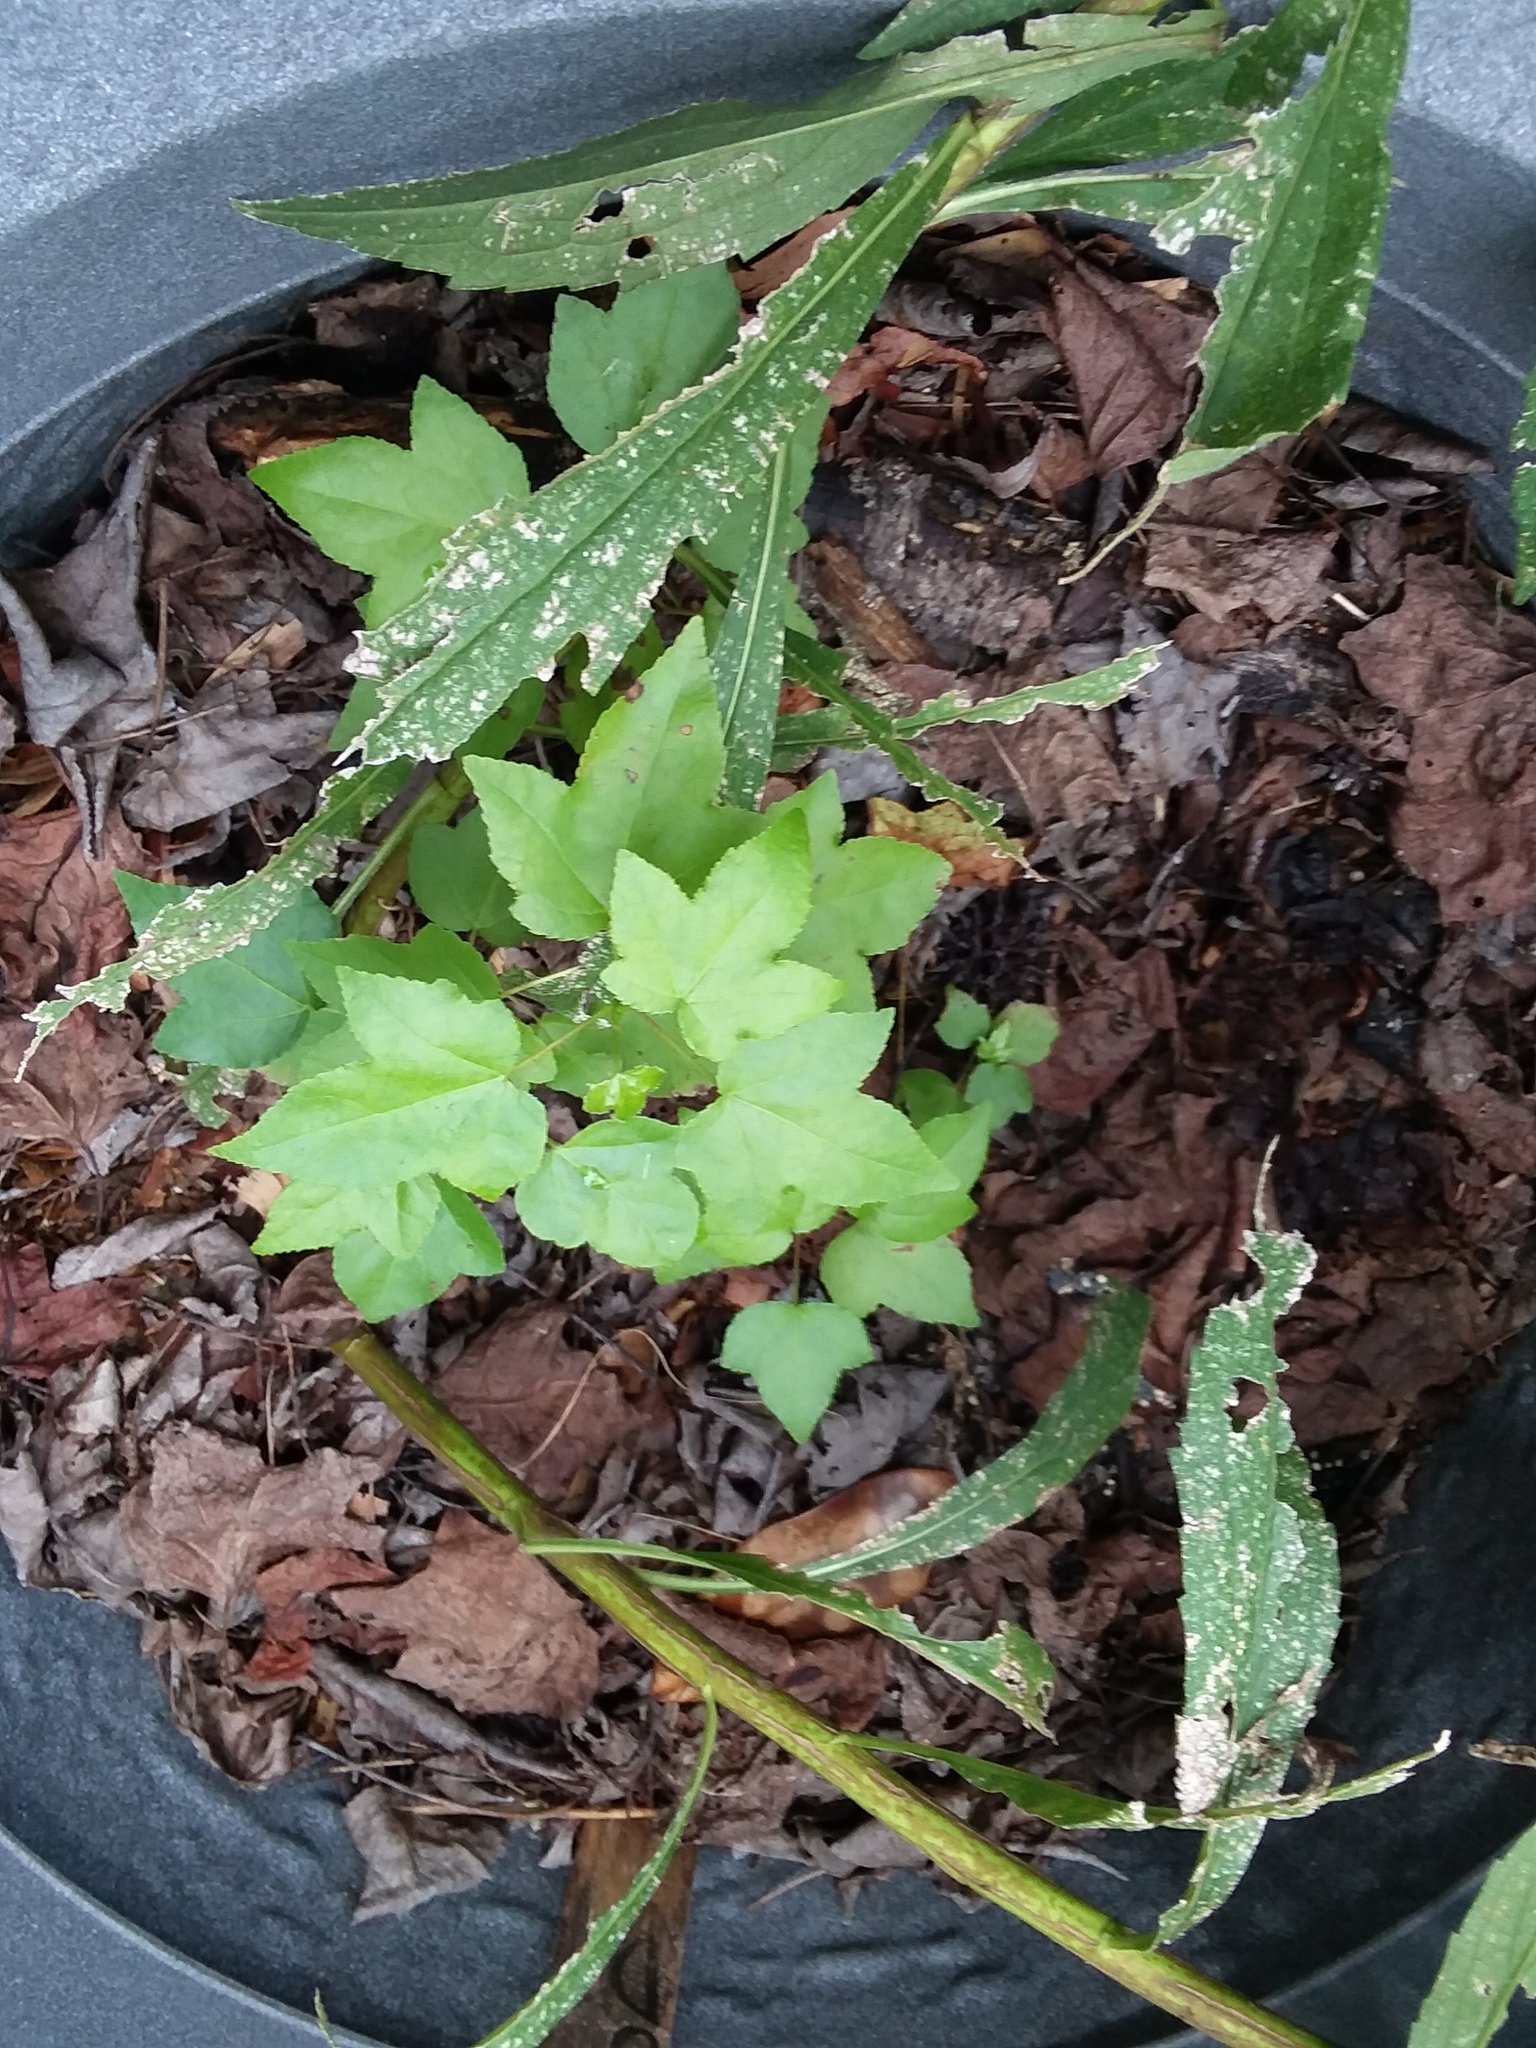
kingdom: Plantae
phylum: Tracheophyta
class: Magnoliopsida
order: Saxifragales
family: Altingiaceae
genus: Liquidambar
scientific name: Liquidambar styraciflua
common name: Sweet gum
